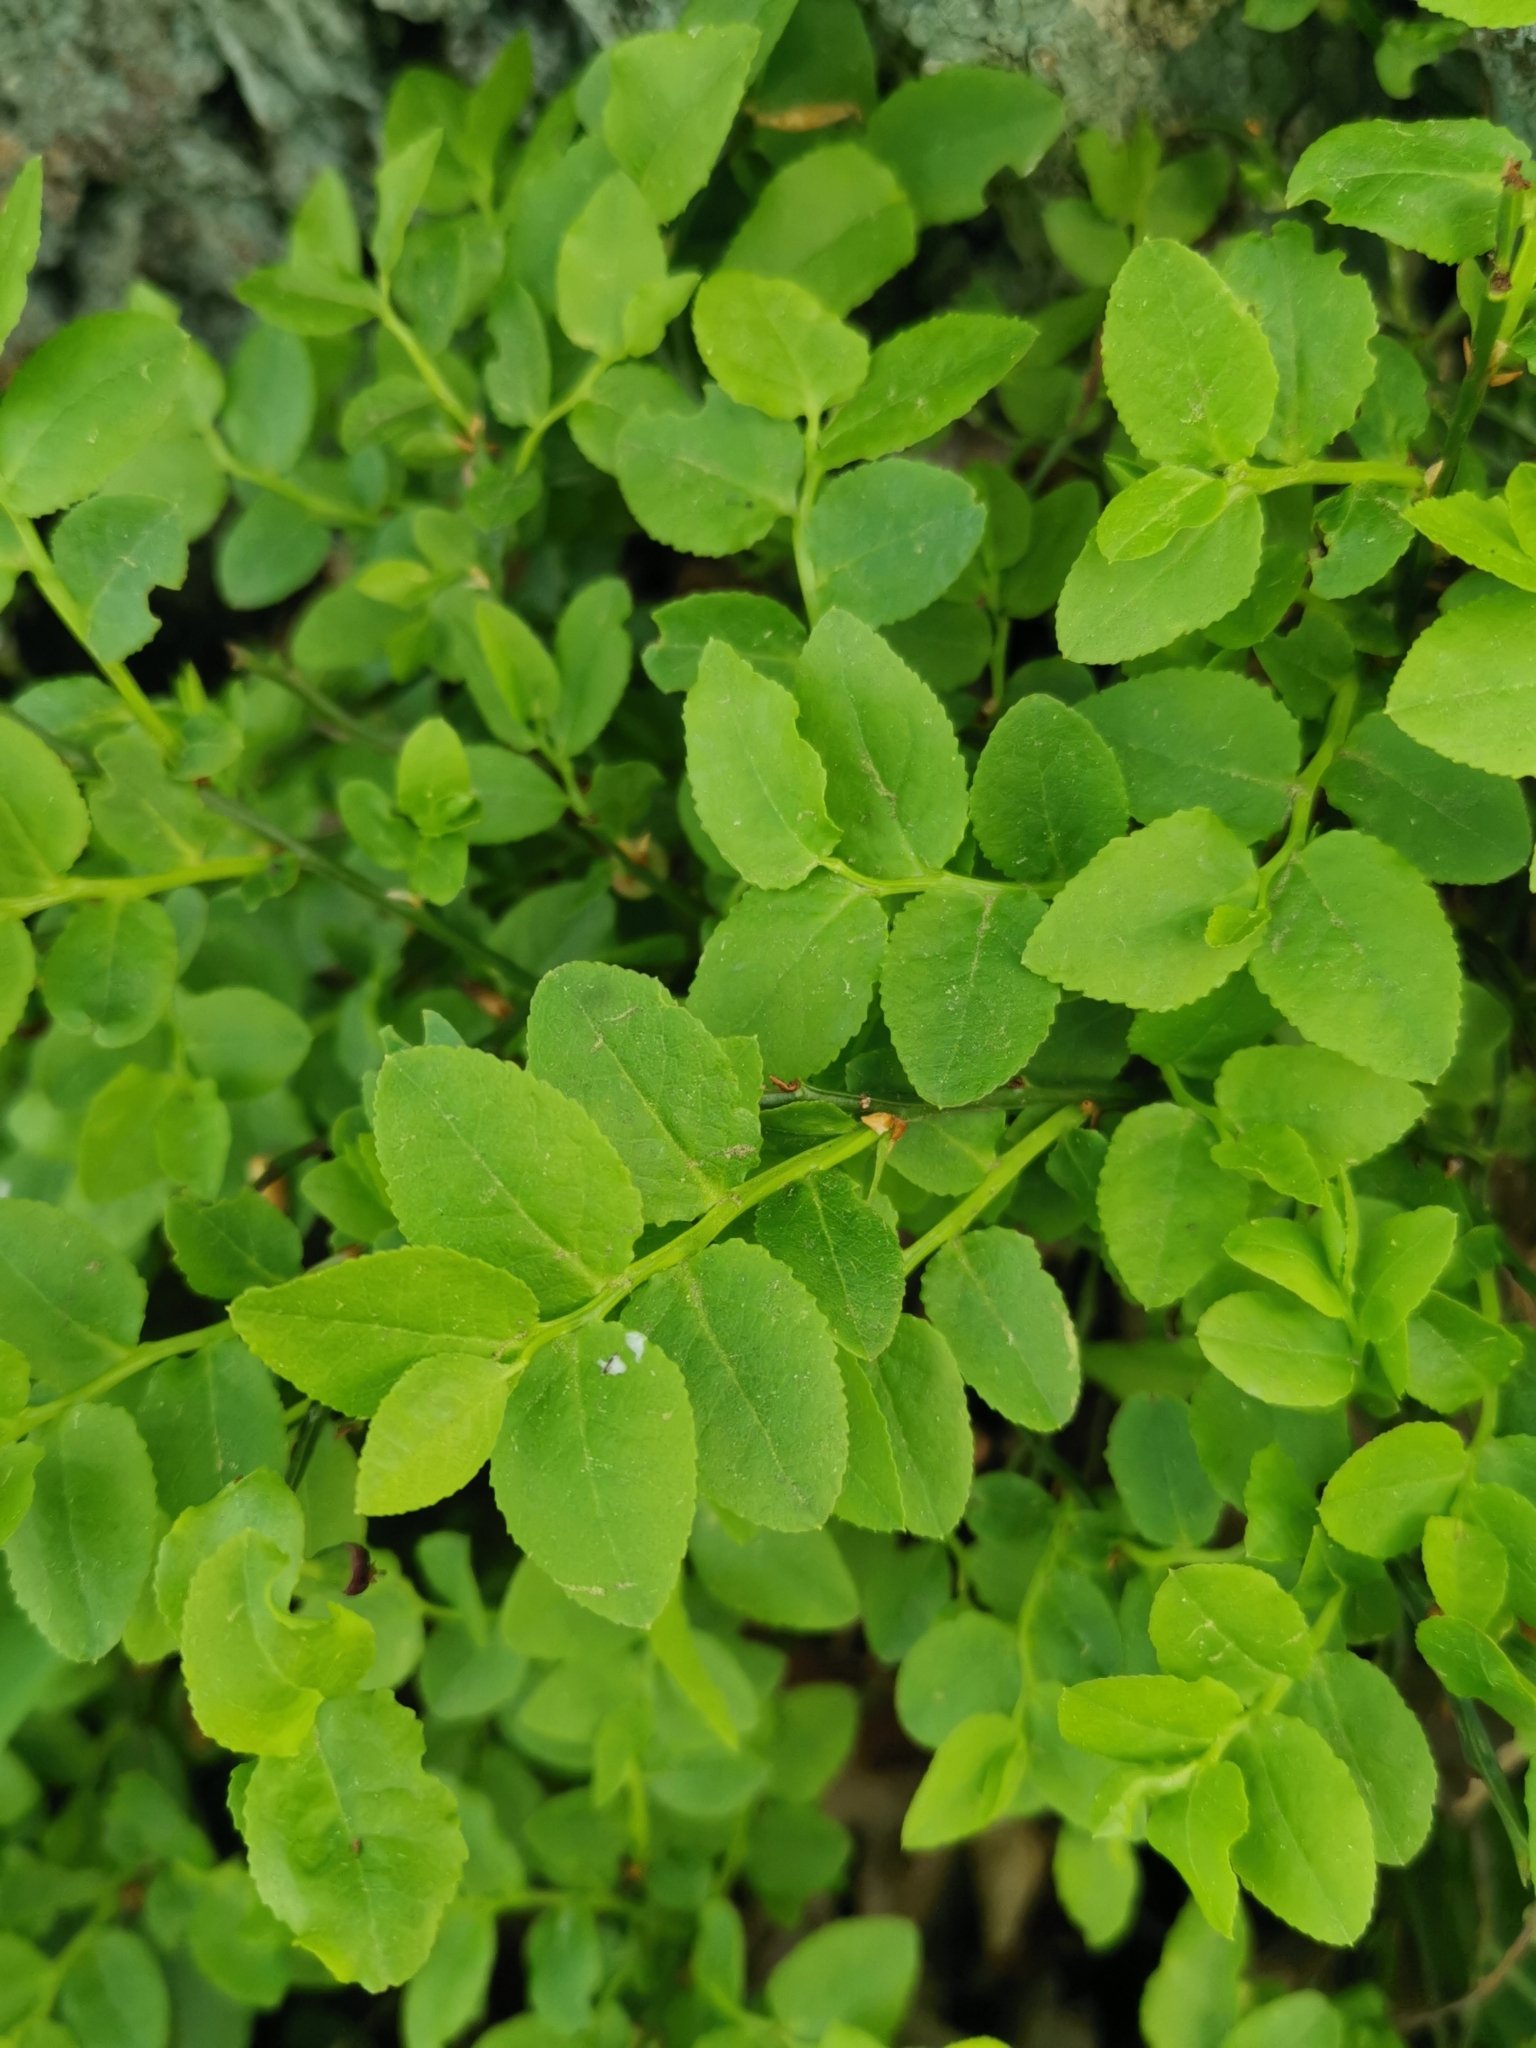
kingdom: Plantae
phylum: Tracheophyta
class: Magnoliopsida
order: Ericales
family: Ericaceae
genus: Vaccinium
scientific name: Vaccinium myrtillus
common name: Bilberry
